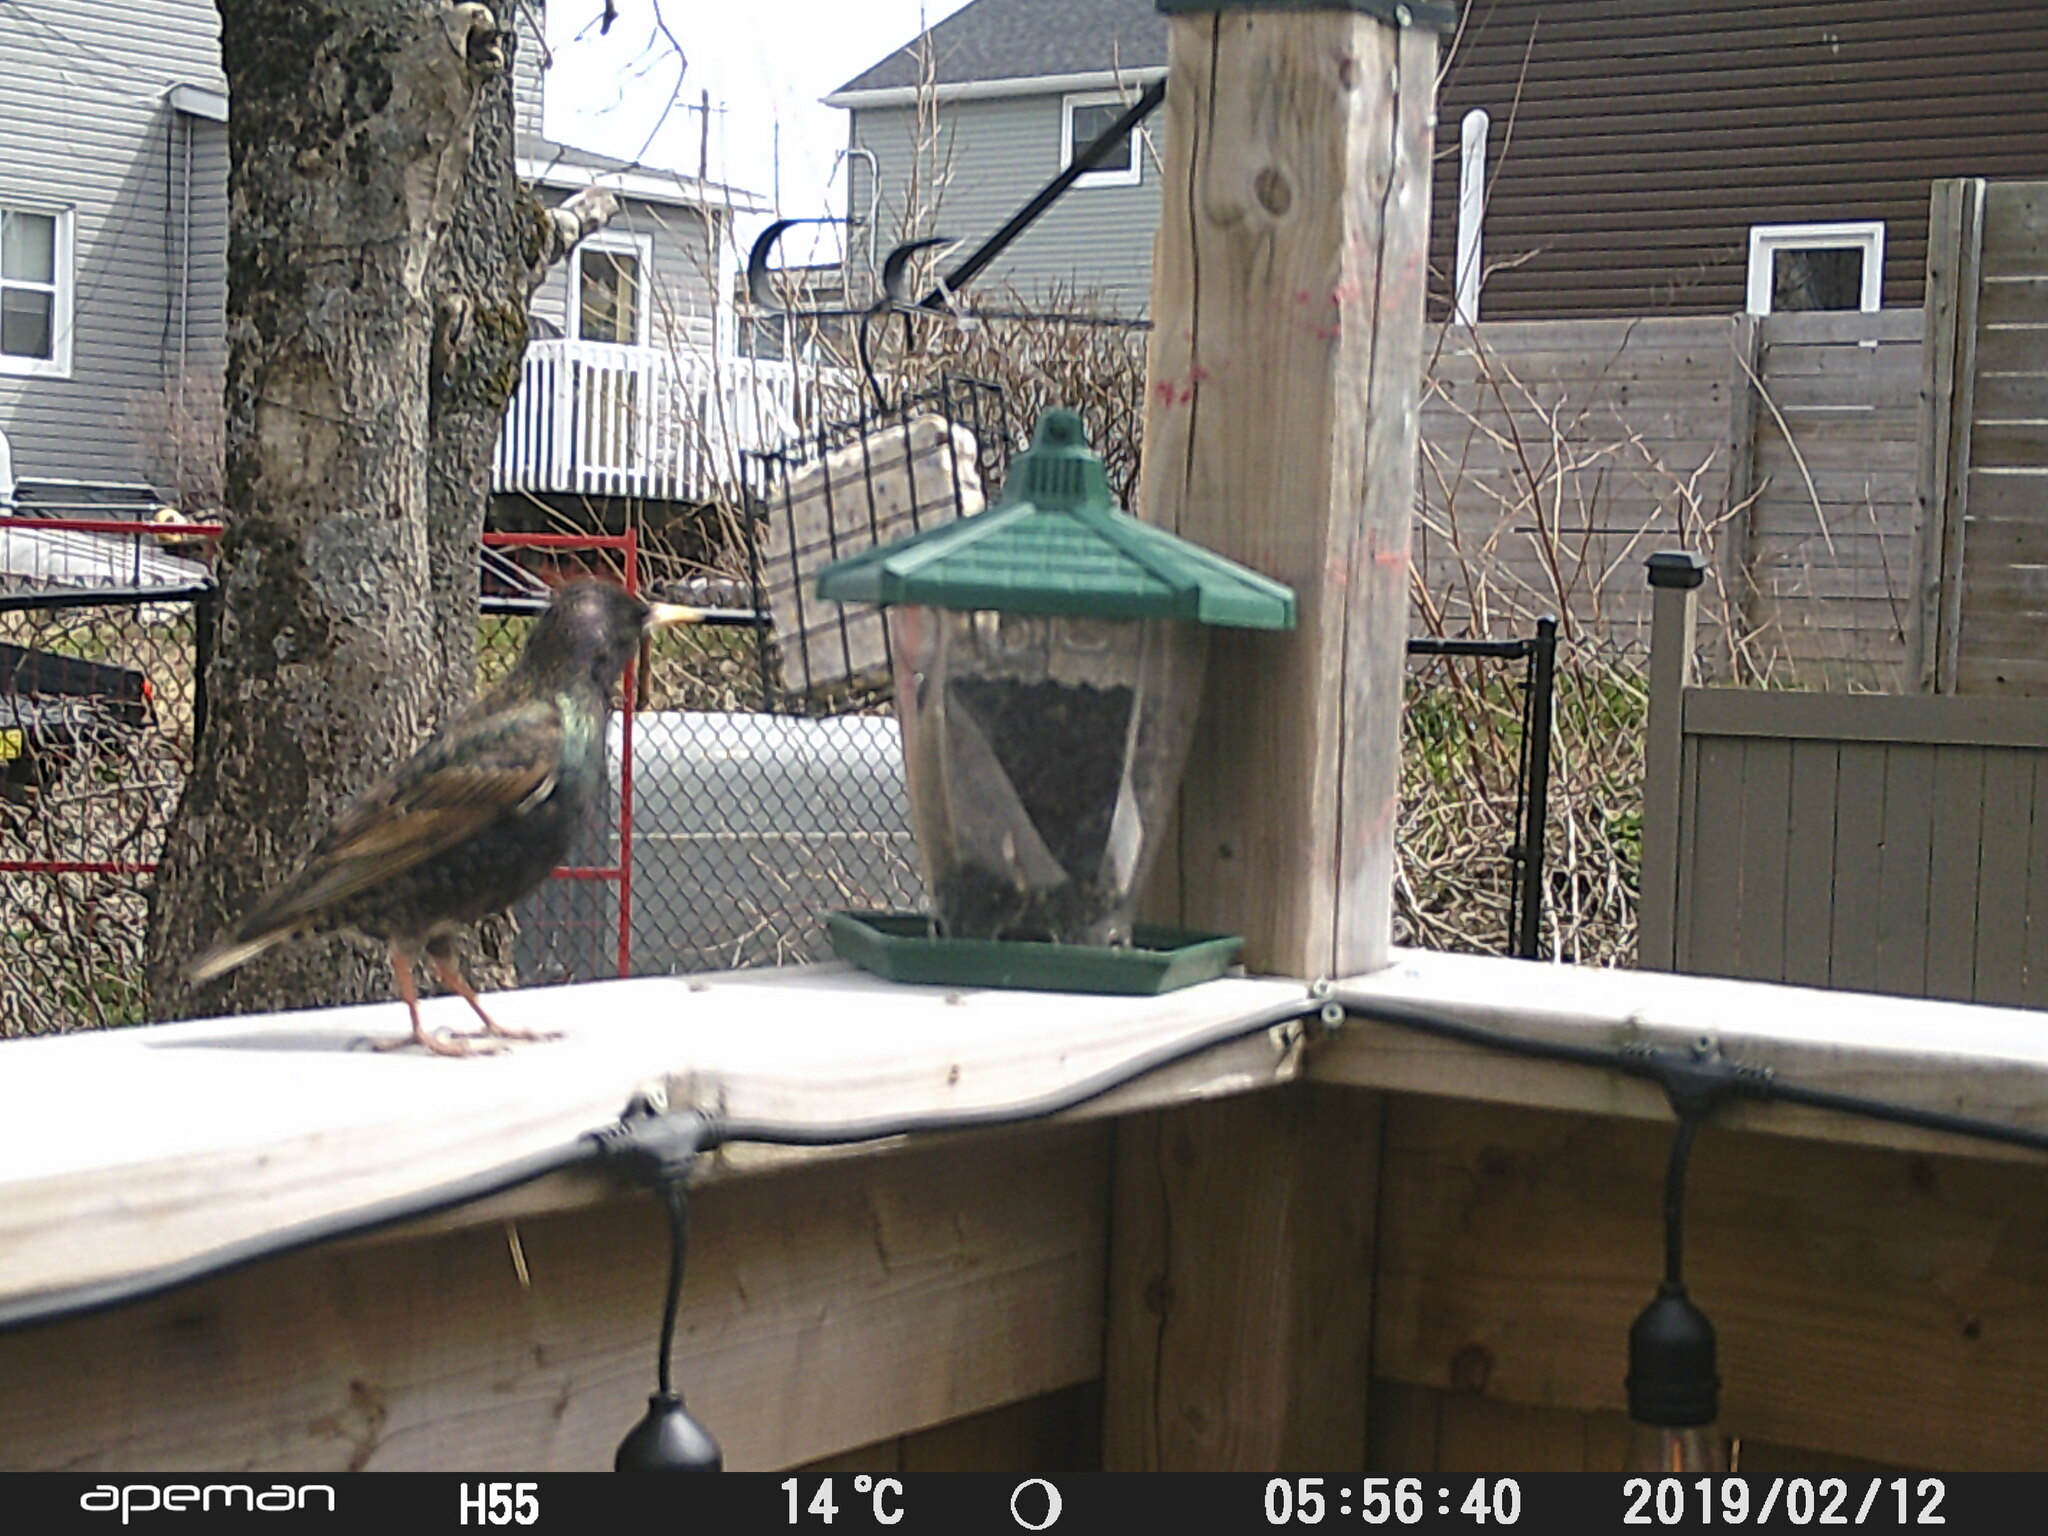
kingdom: Animalia
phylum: Chordata
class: Aves
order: Passeriformes
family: Sturnidae
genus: Sturnus
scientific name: Sturnus vulgaris
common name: Common starling
